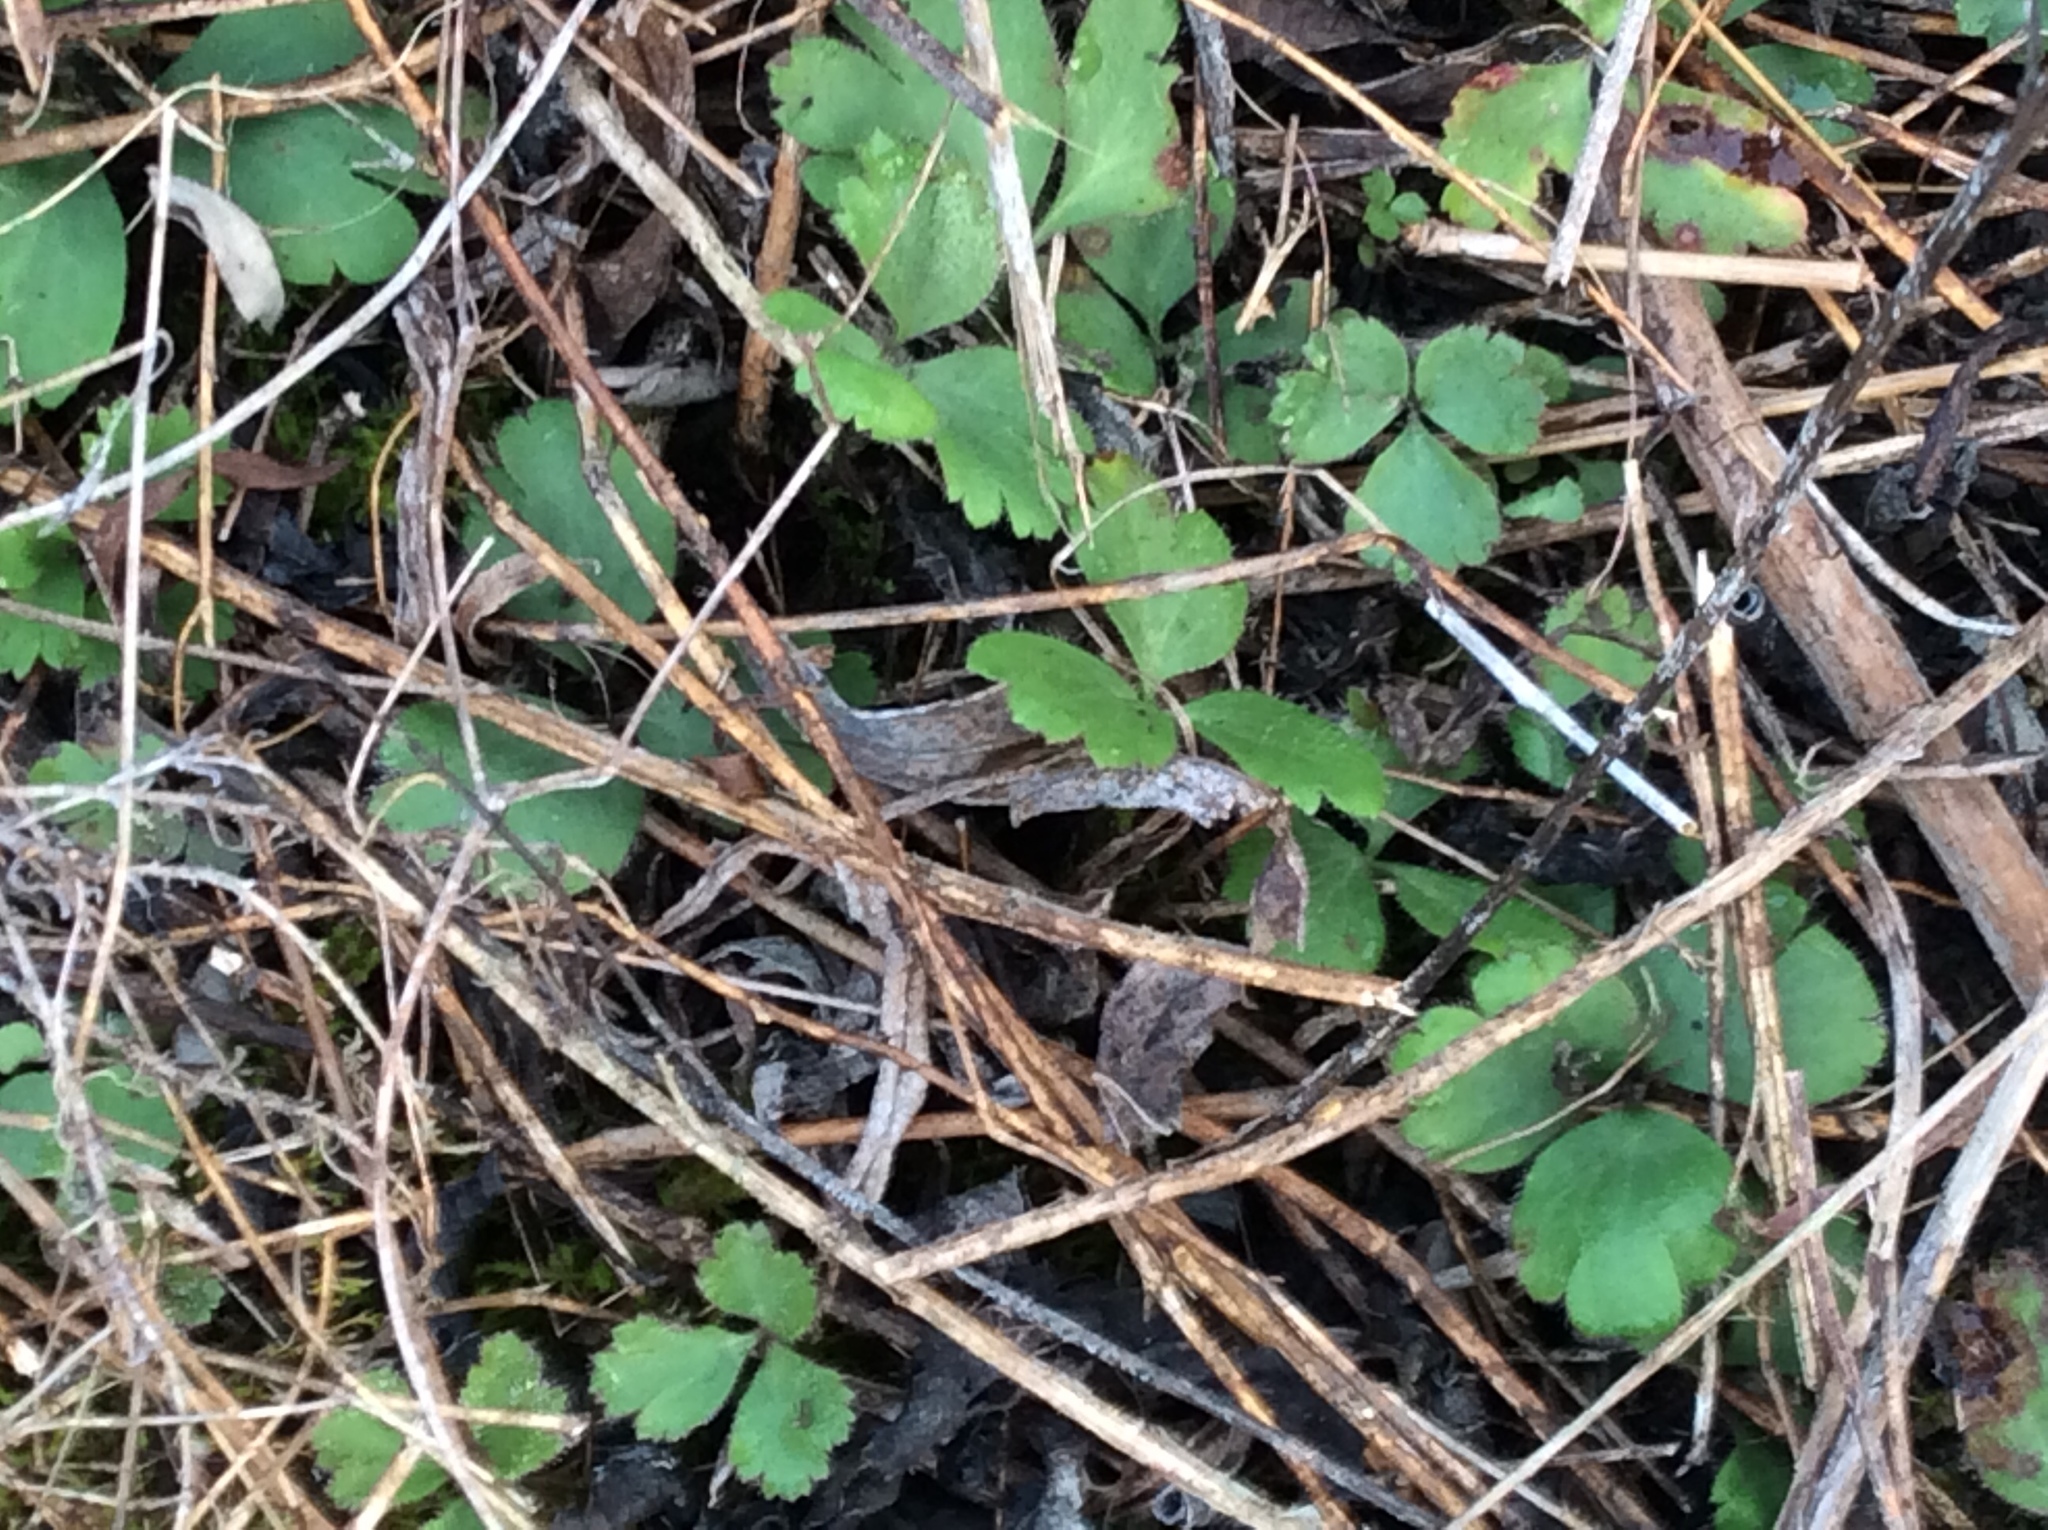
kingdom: Plantae
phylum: Tracheophyta
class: Magnoliopsida
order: Ranunculales
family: Ranunculaceae
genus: Anemone
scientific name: Anemone berlandieri
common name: Ten-petal anemone
